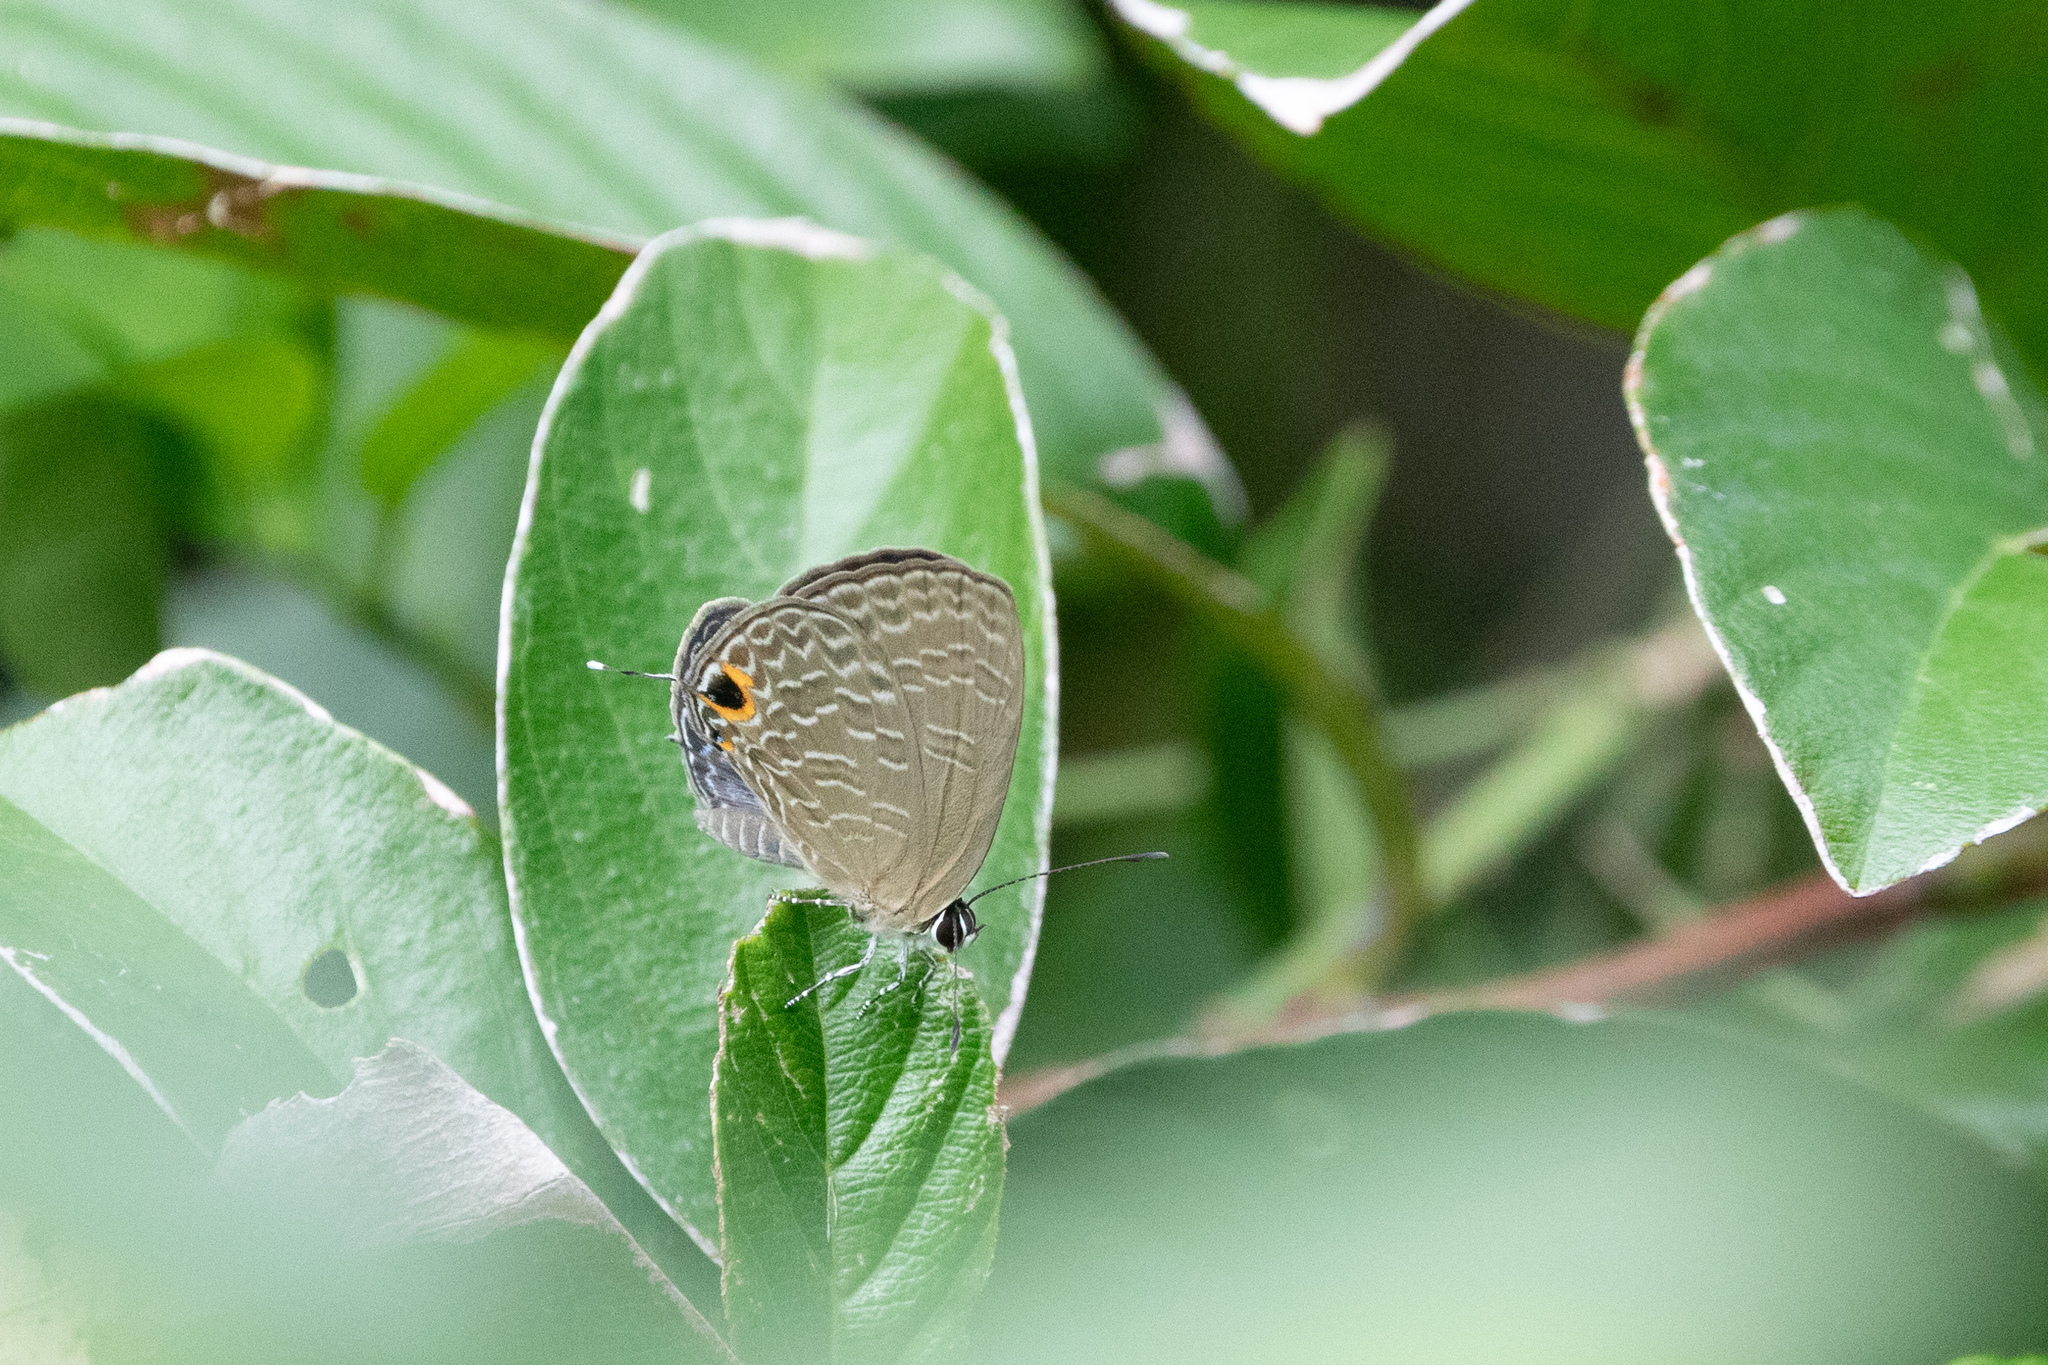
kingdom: Animalia
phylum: Arthropoda
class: Insecta
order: Lepidoptera
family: Lycaenidae
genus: Jamides
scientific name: Jamides bochus
